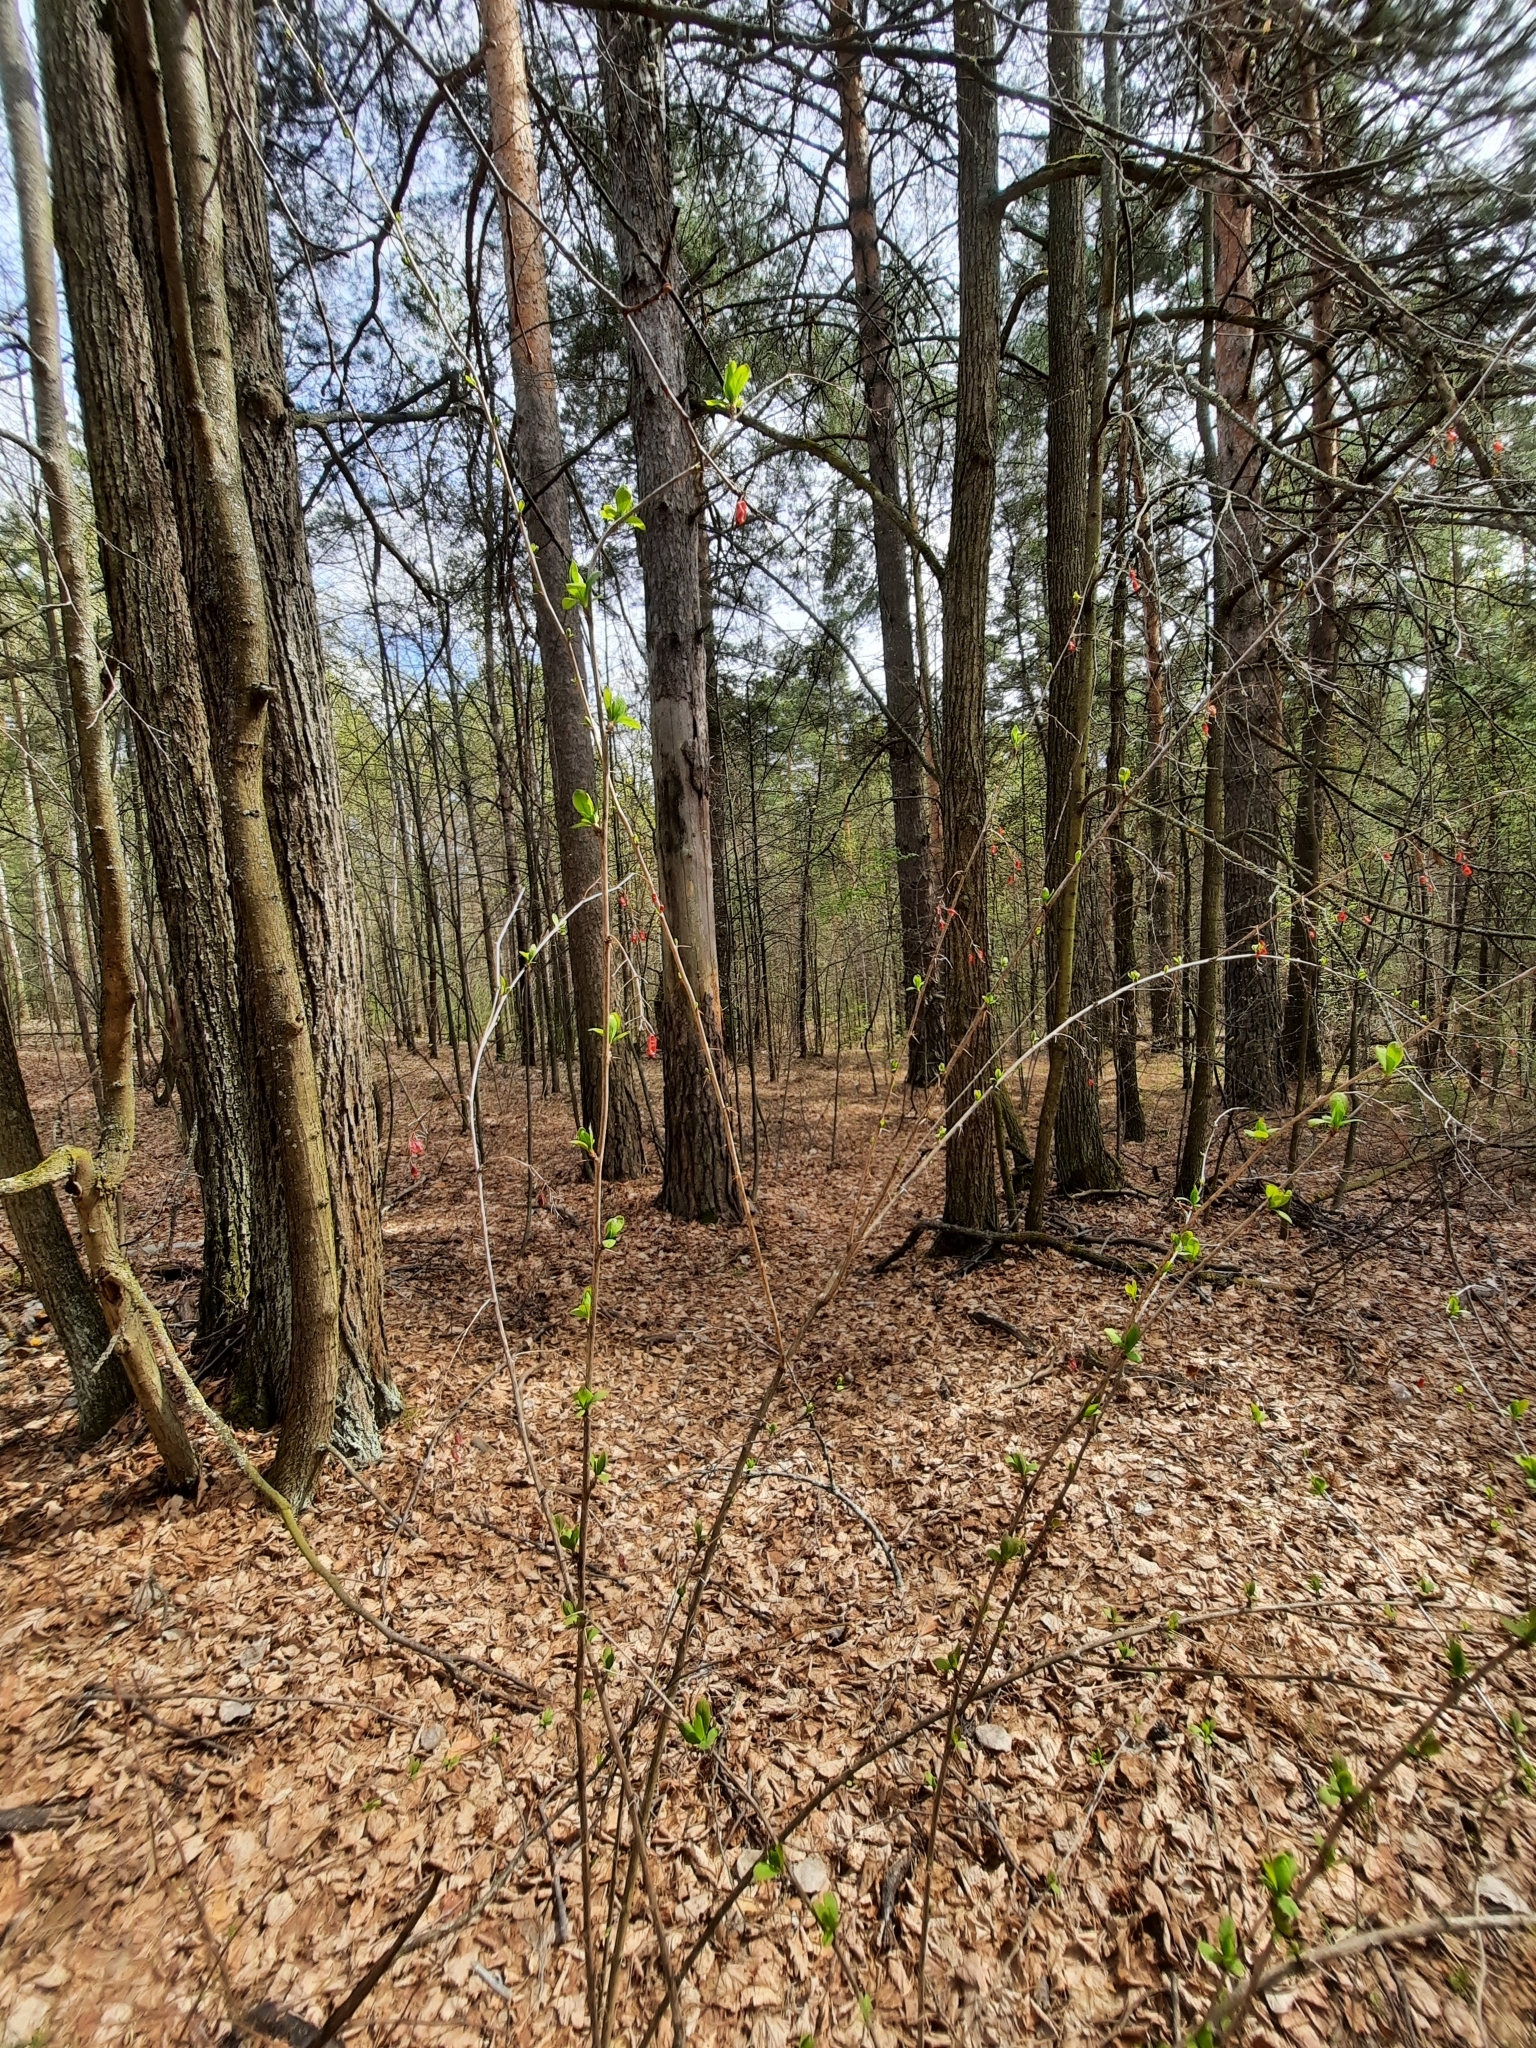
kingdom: Plantae
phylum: Tracheophyta
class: Magnoliopsida
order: Ranunculales
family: Berberidaceae
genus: Berberis
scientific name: Berberis vulgaris
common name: Barberry
